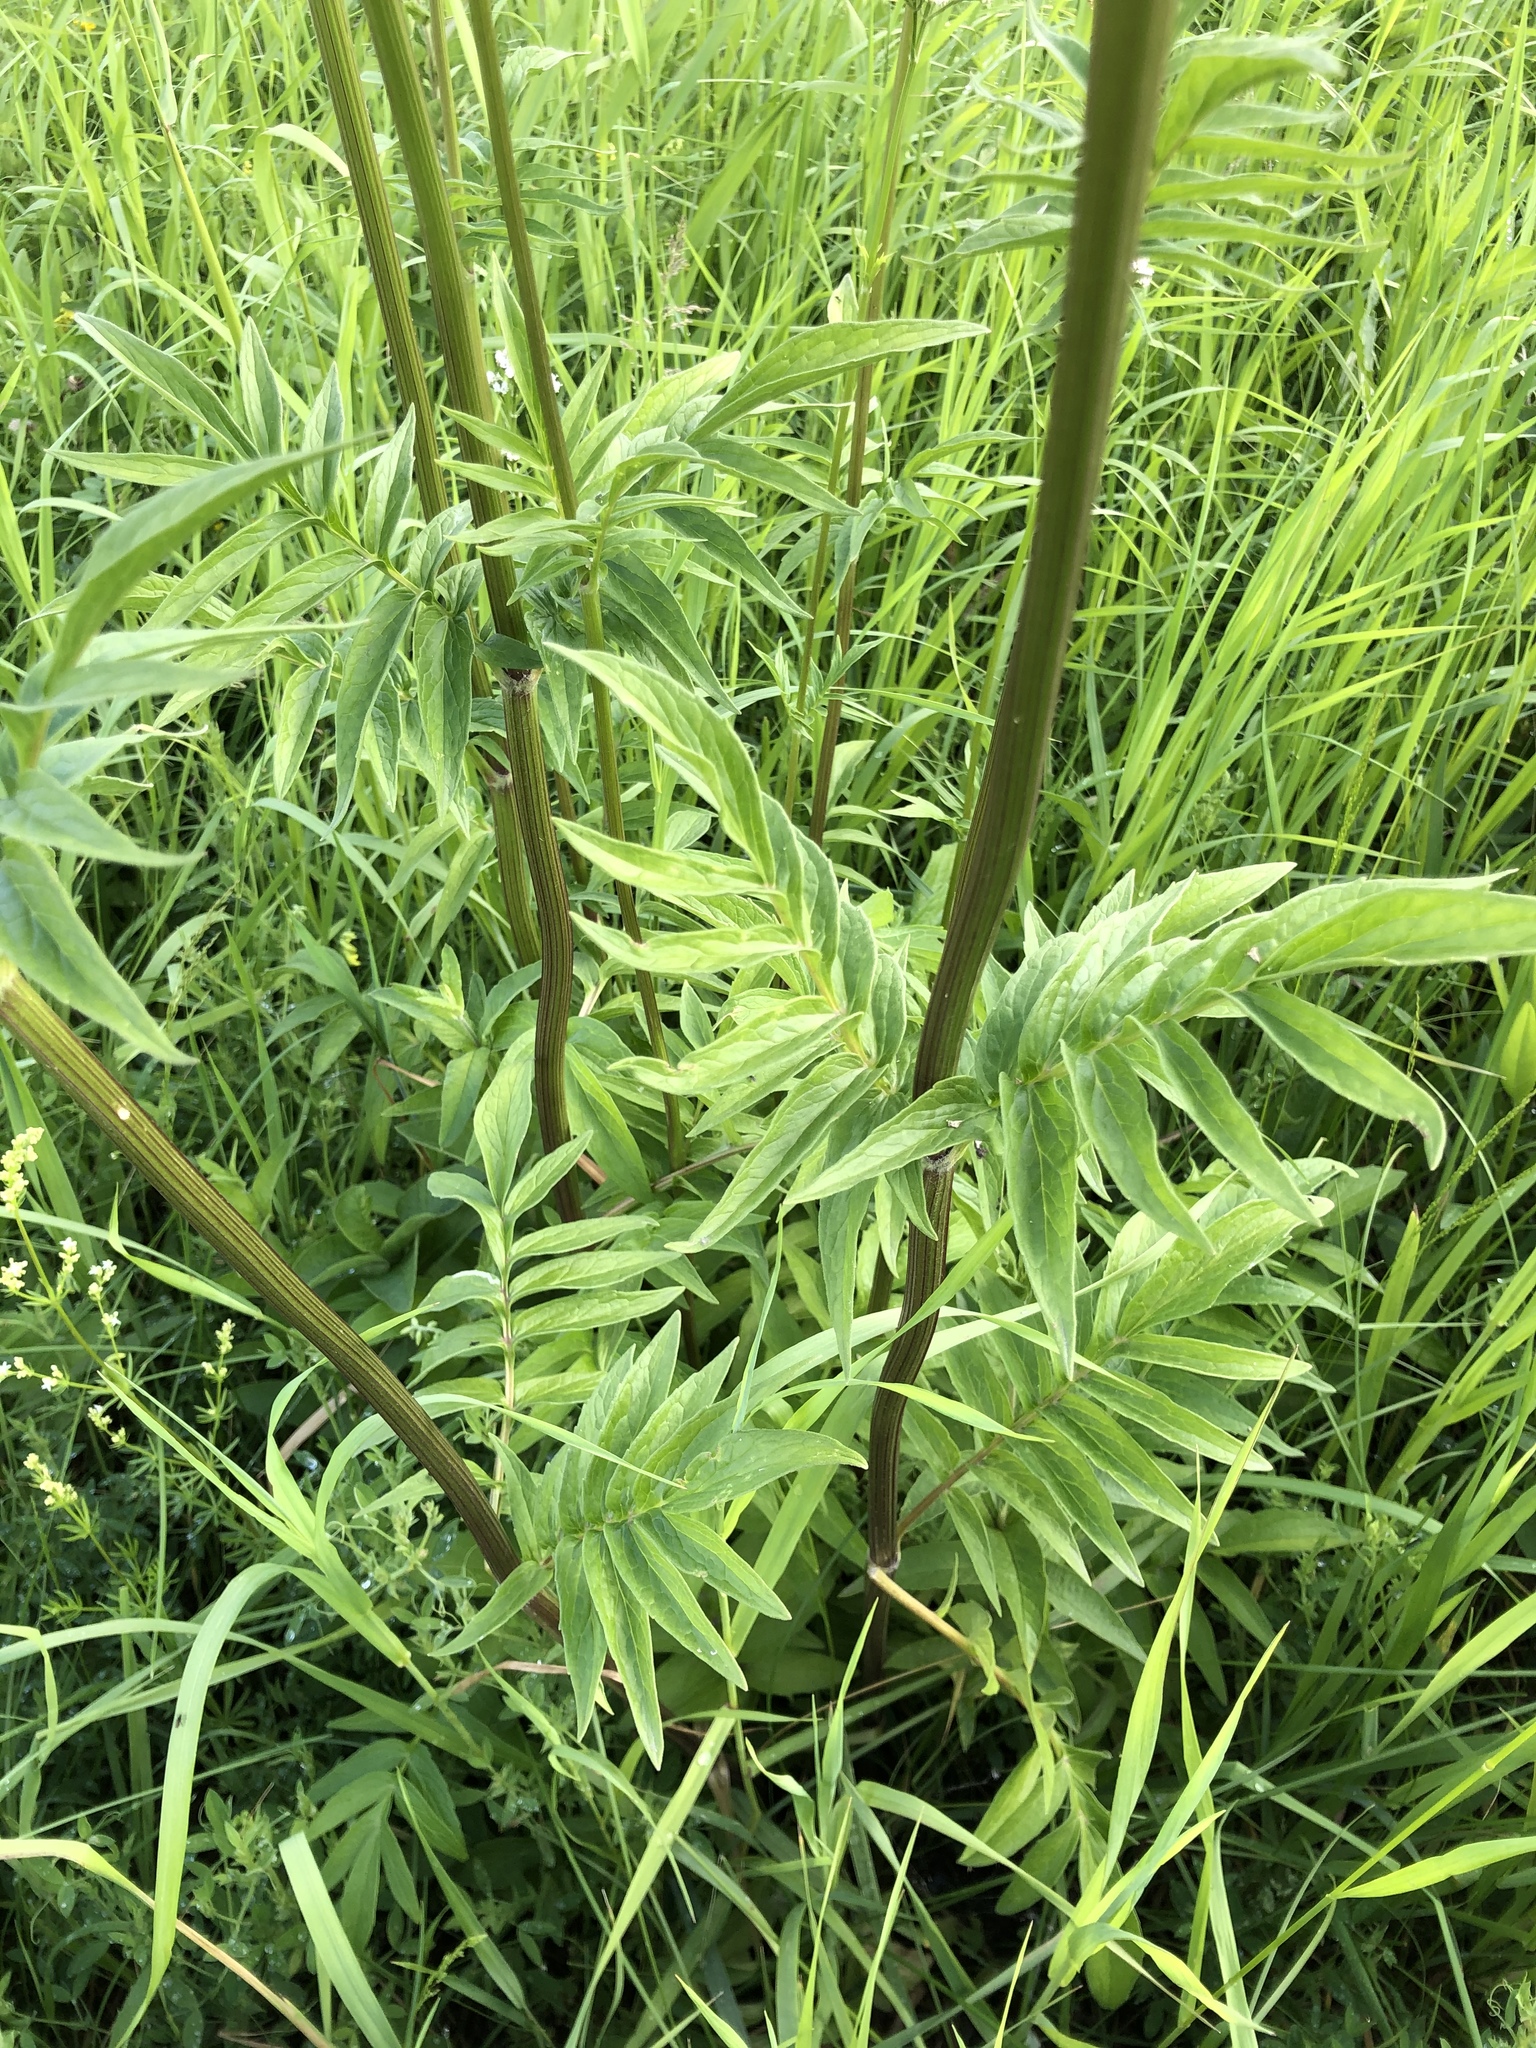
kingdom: Plantae
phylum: Tracheophyta
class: Magnoliopsida
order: Dipsacales
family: Caprifoliaceae
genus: Valeriana
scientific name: Valeriana officinalis
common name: Common valerian
